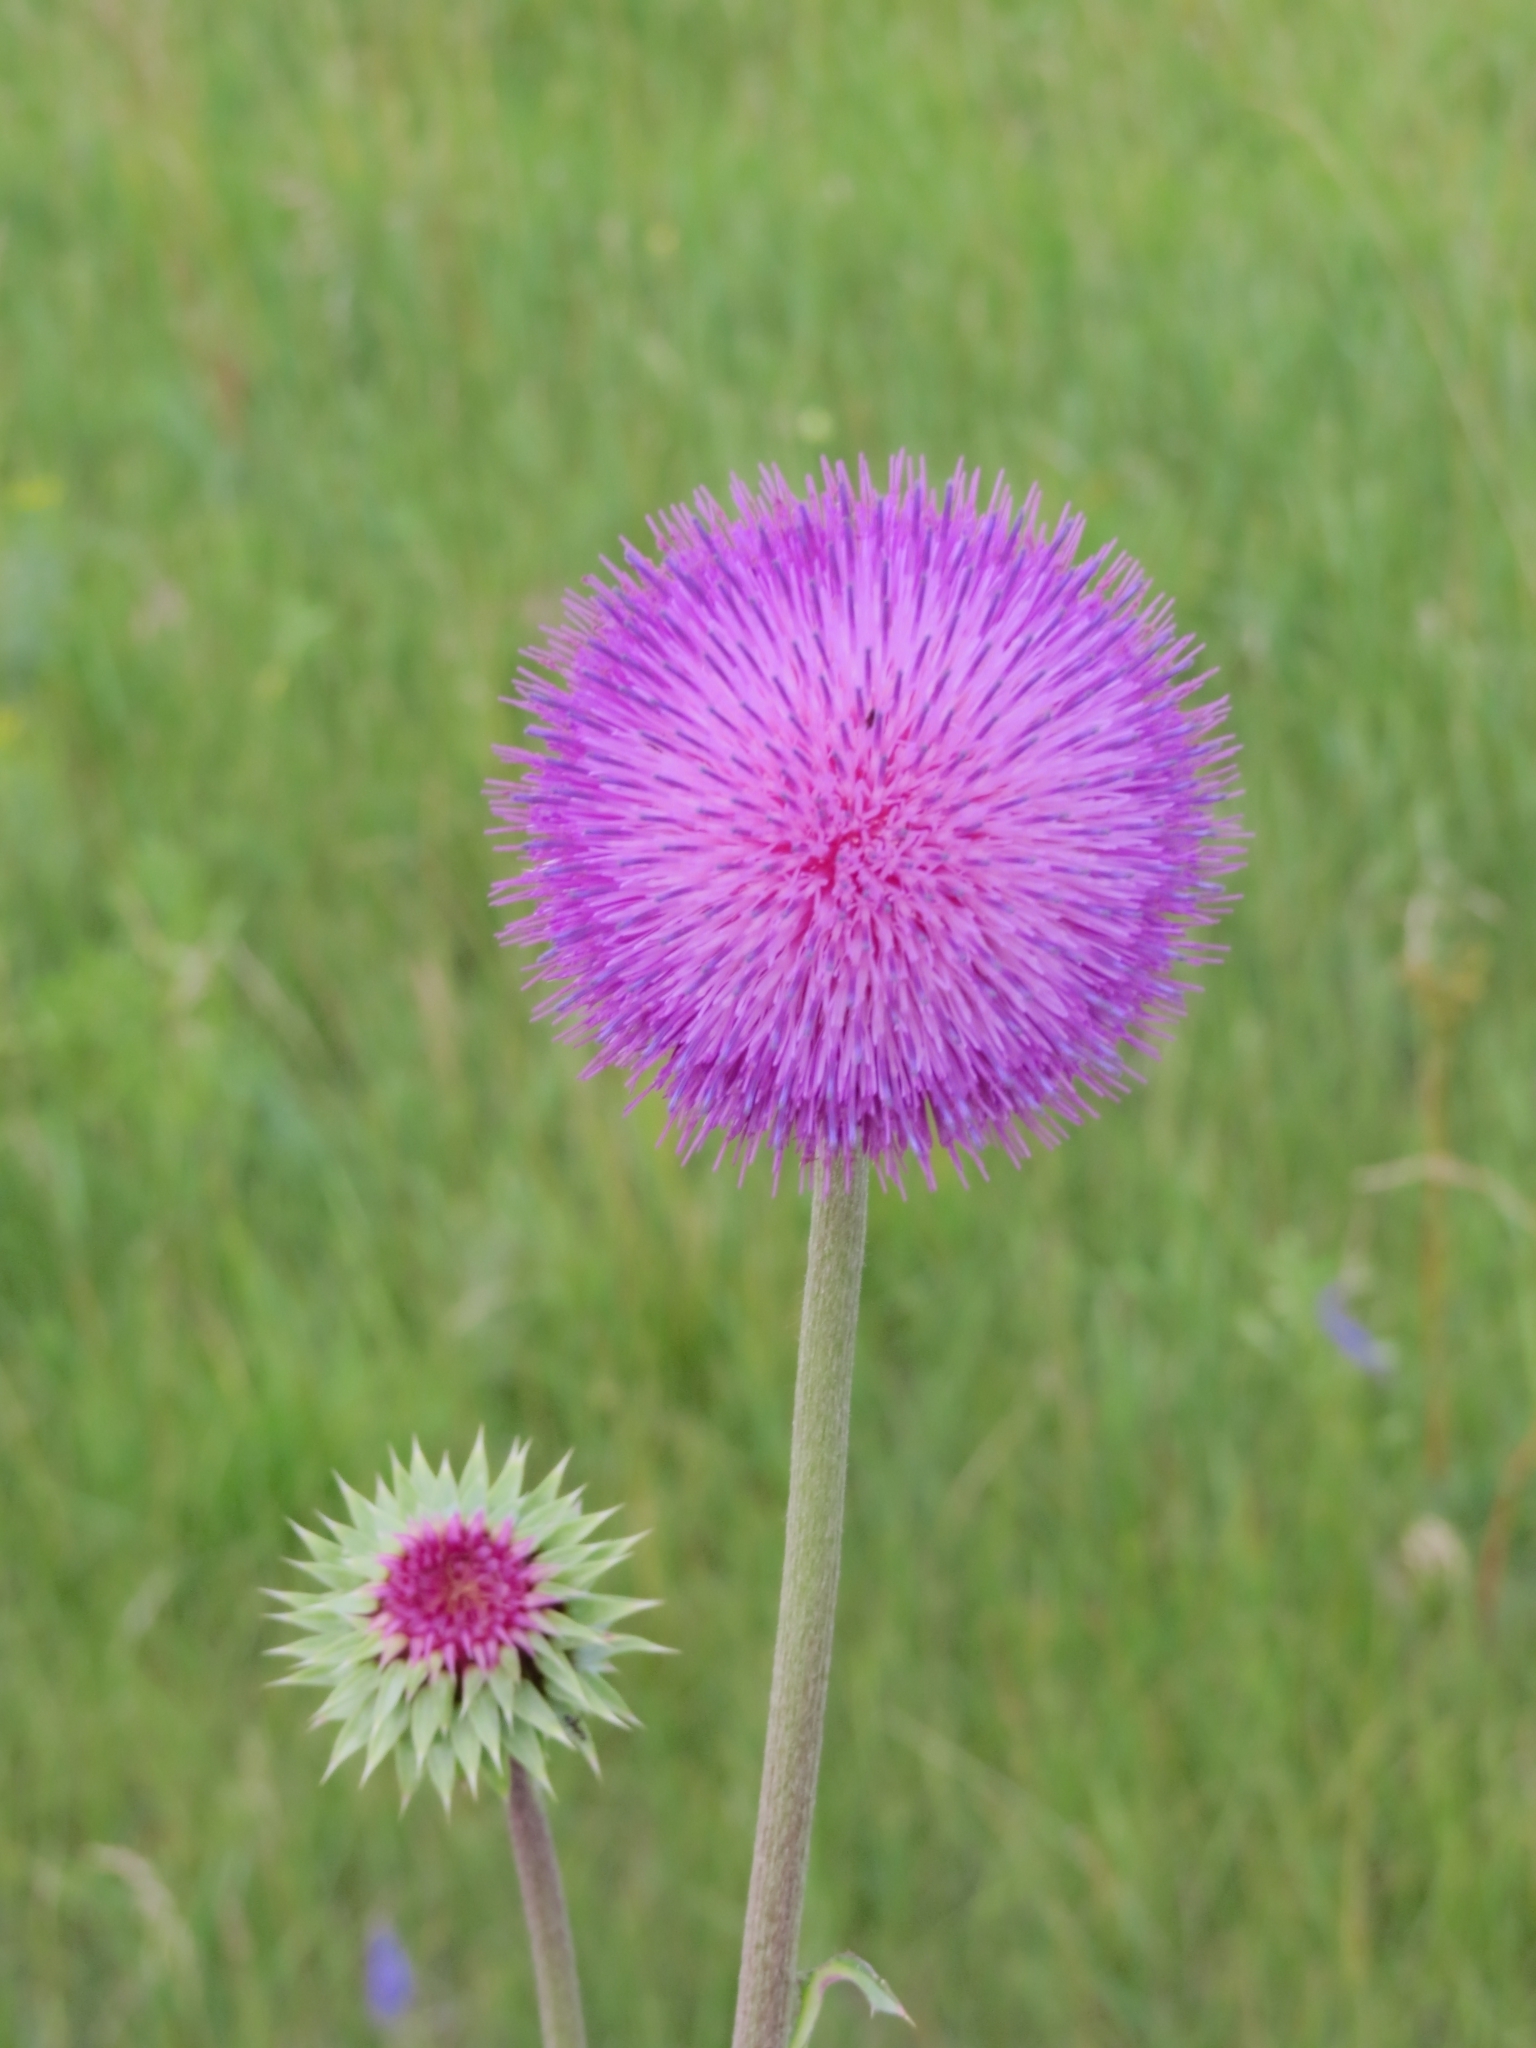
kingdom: Plantae
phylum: Tracheophyta
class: Magnoliopsida
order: Asterales
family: Asteraceae
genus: Carduus
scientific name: Carduus nutans
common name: Musk thistle
